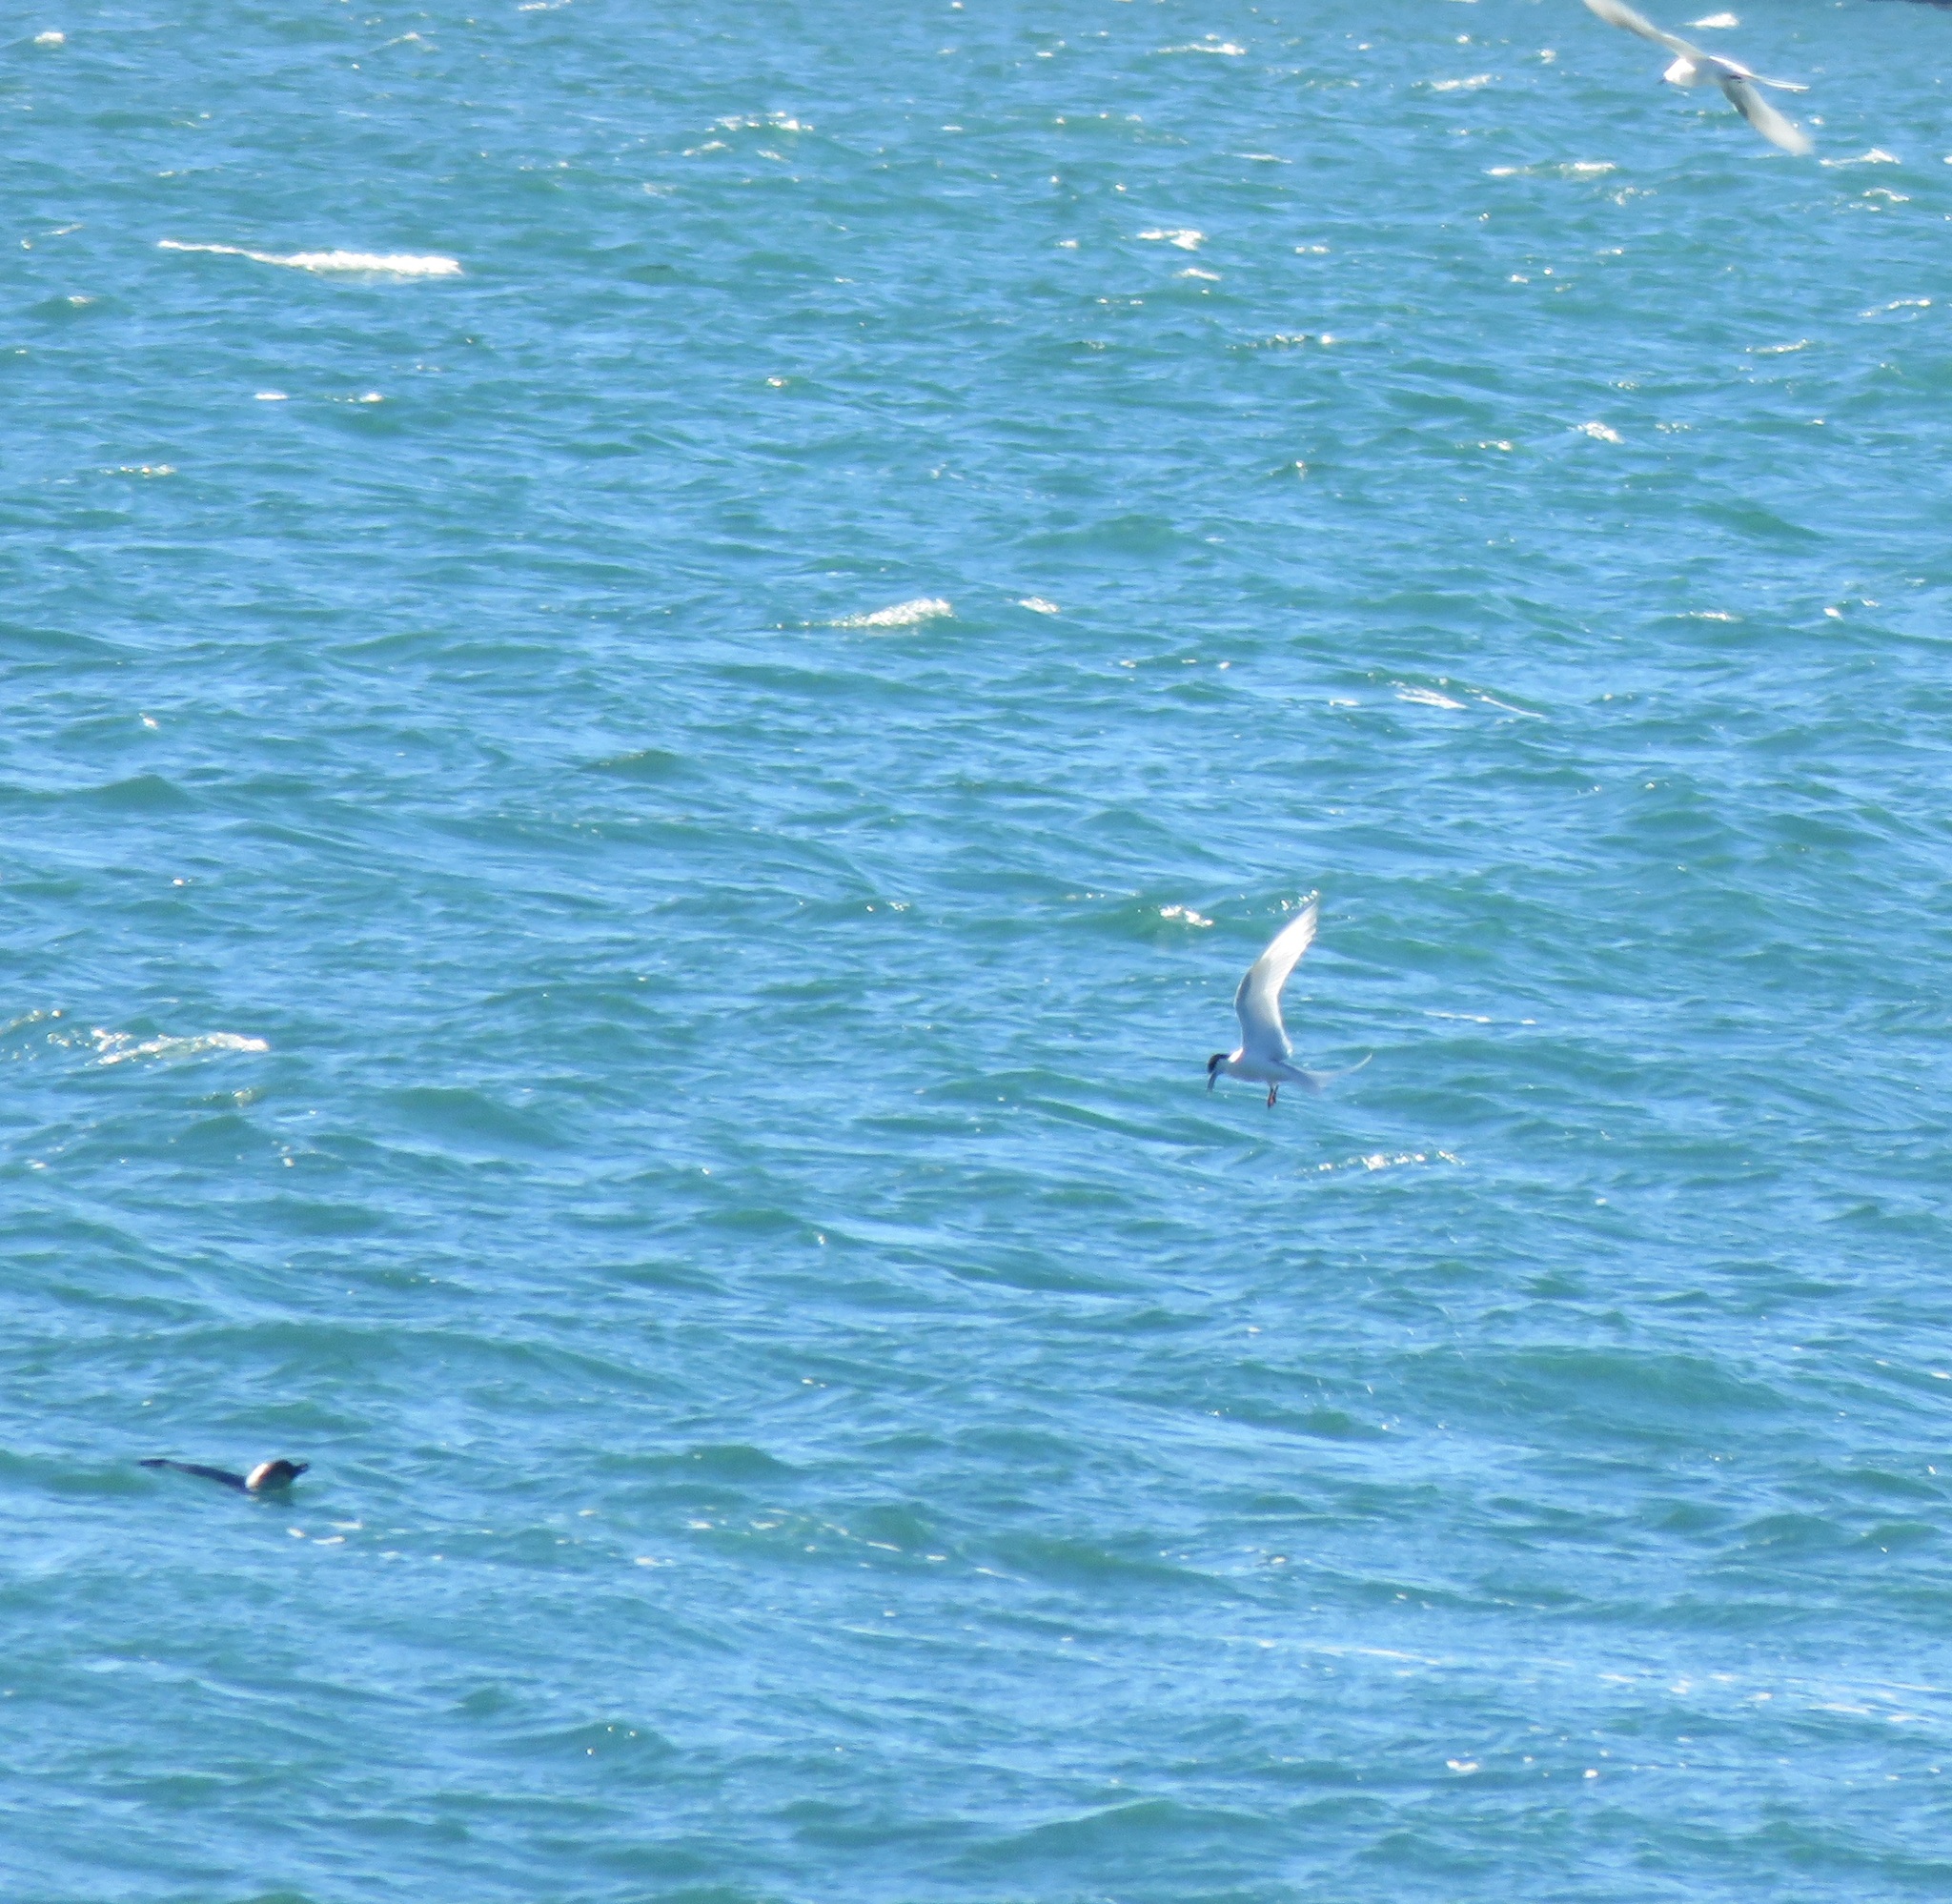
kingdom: Animalia
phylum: Chordata
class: Aves
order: Charadriiformes
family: Laridae
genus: Sterna
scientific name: Sterna striata
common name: White-fronted tern
